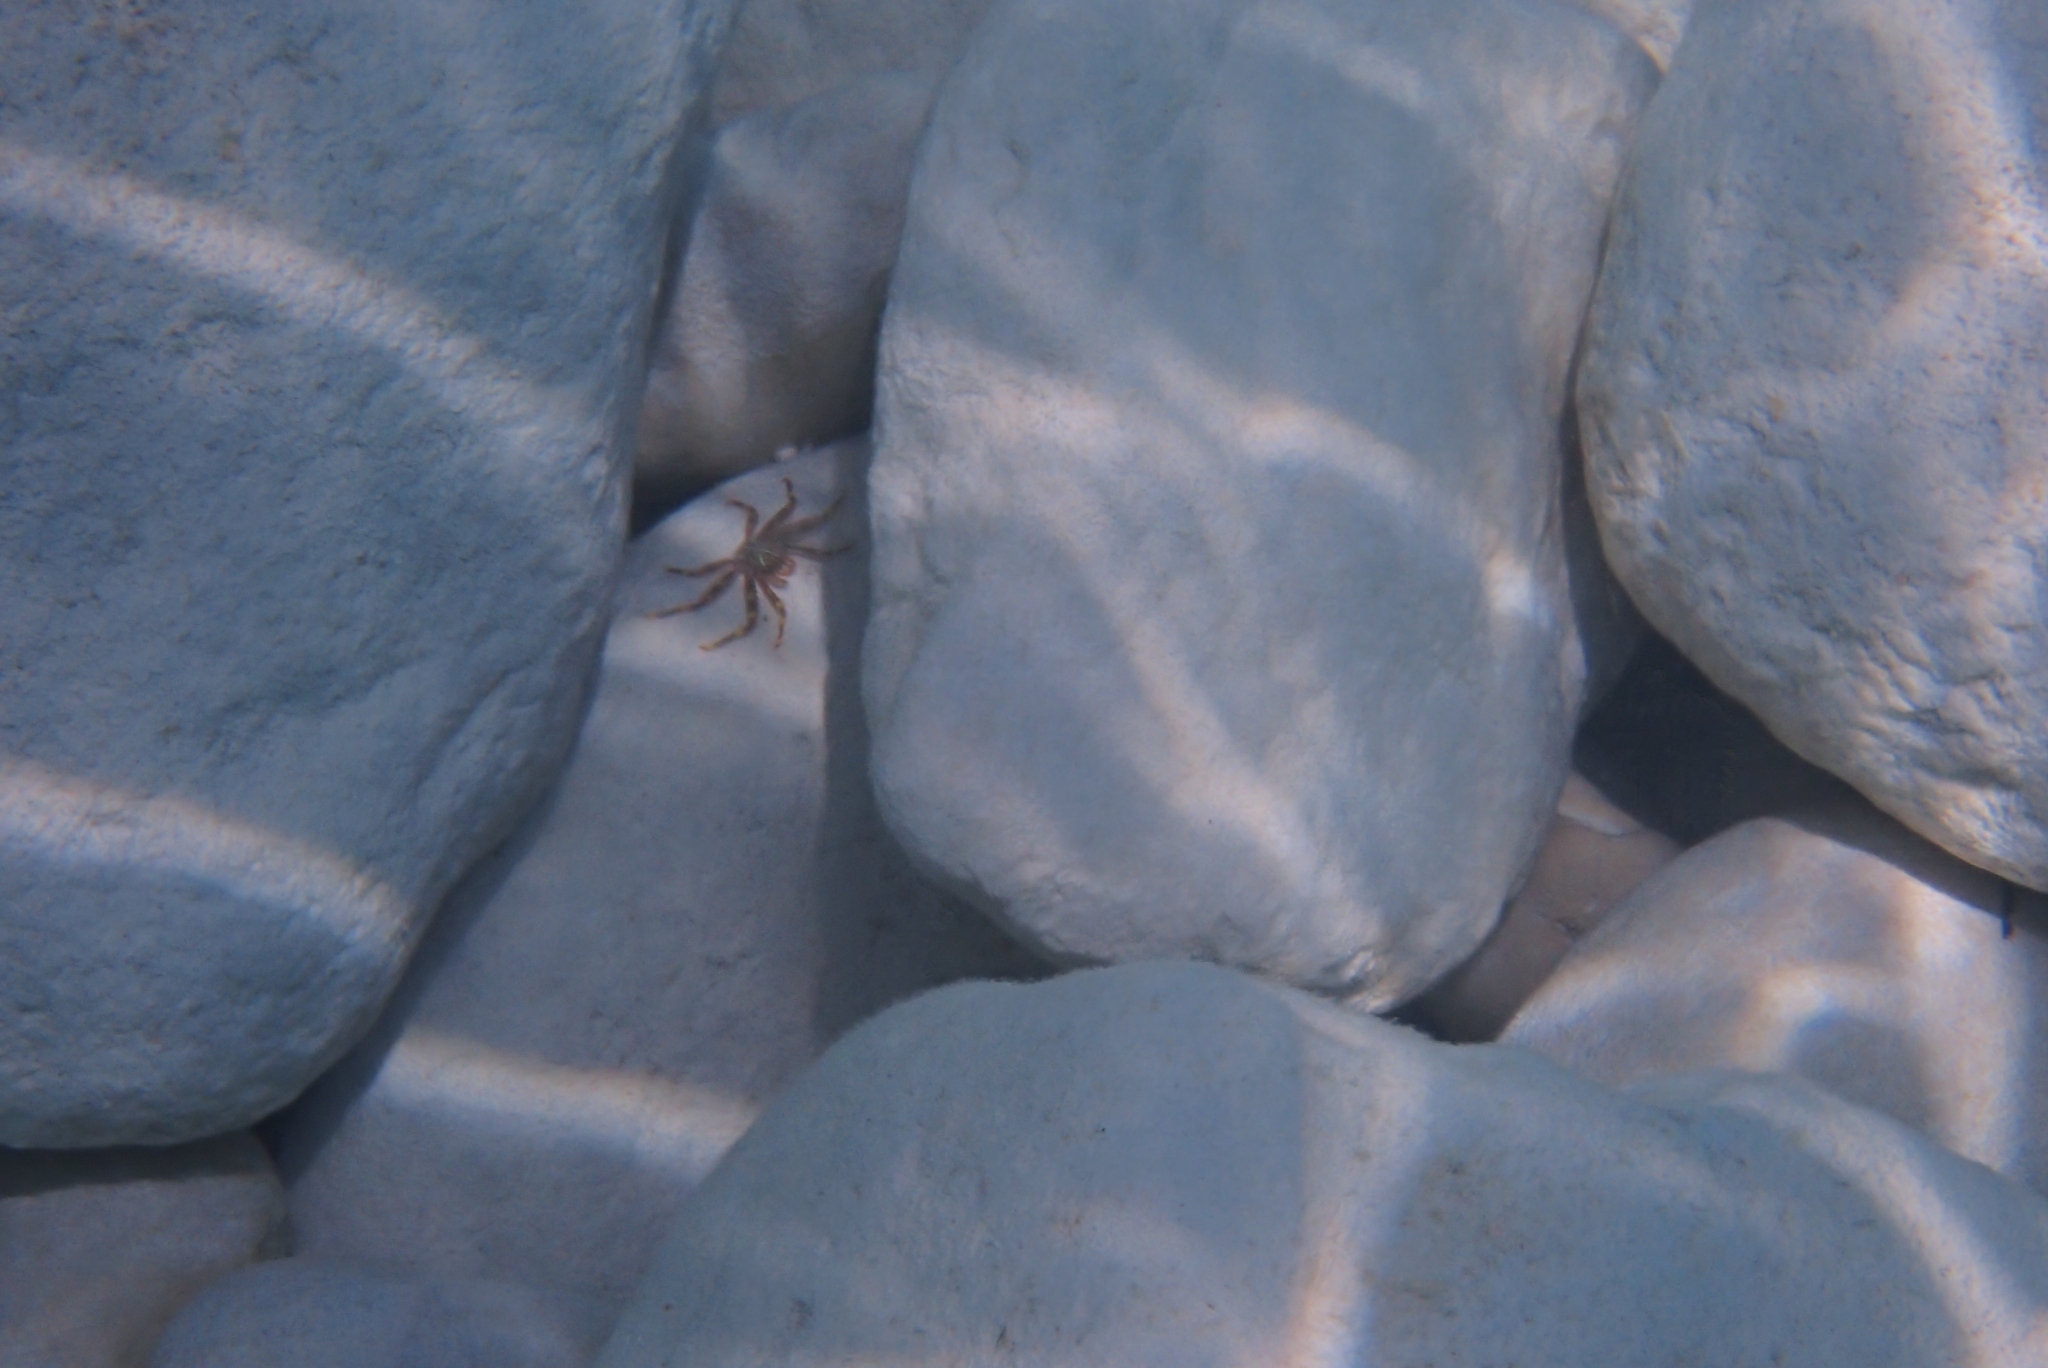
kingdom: Animalia
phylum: Arthropoda
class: Malacostraca
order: Decapoda
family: Percnidae
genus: Percnon
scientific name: Percnon gibbesi
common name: Nimble spray crab
